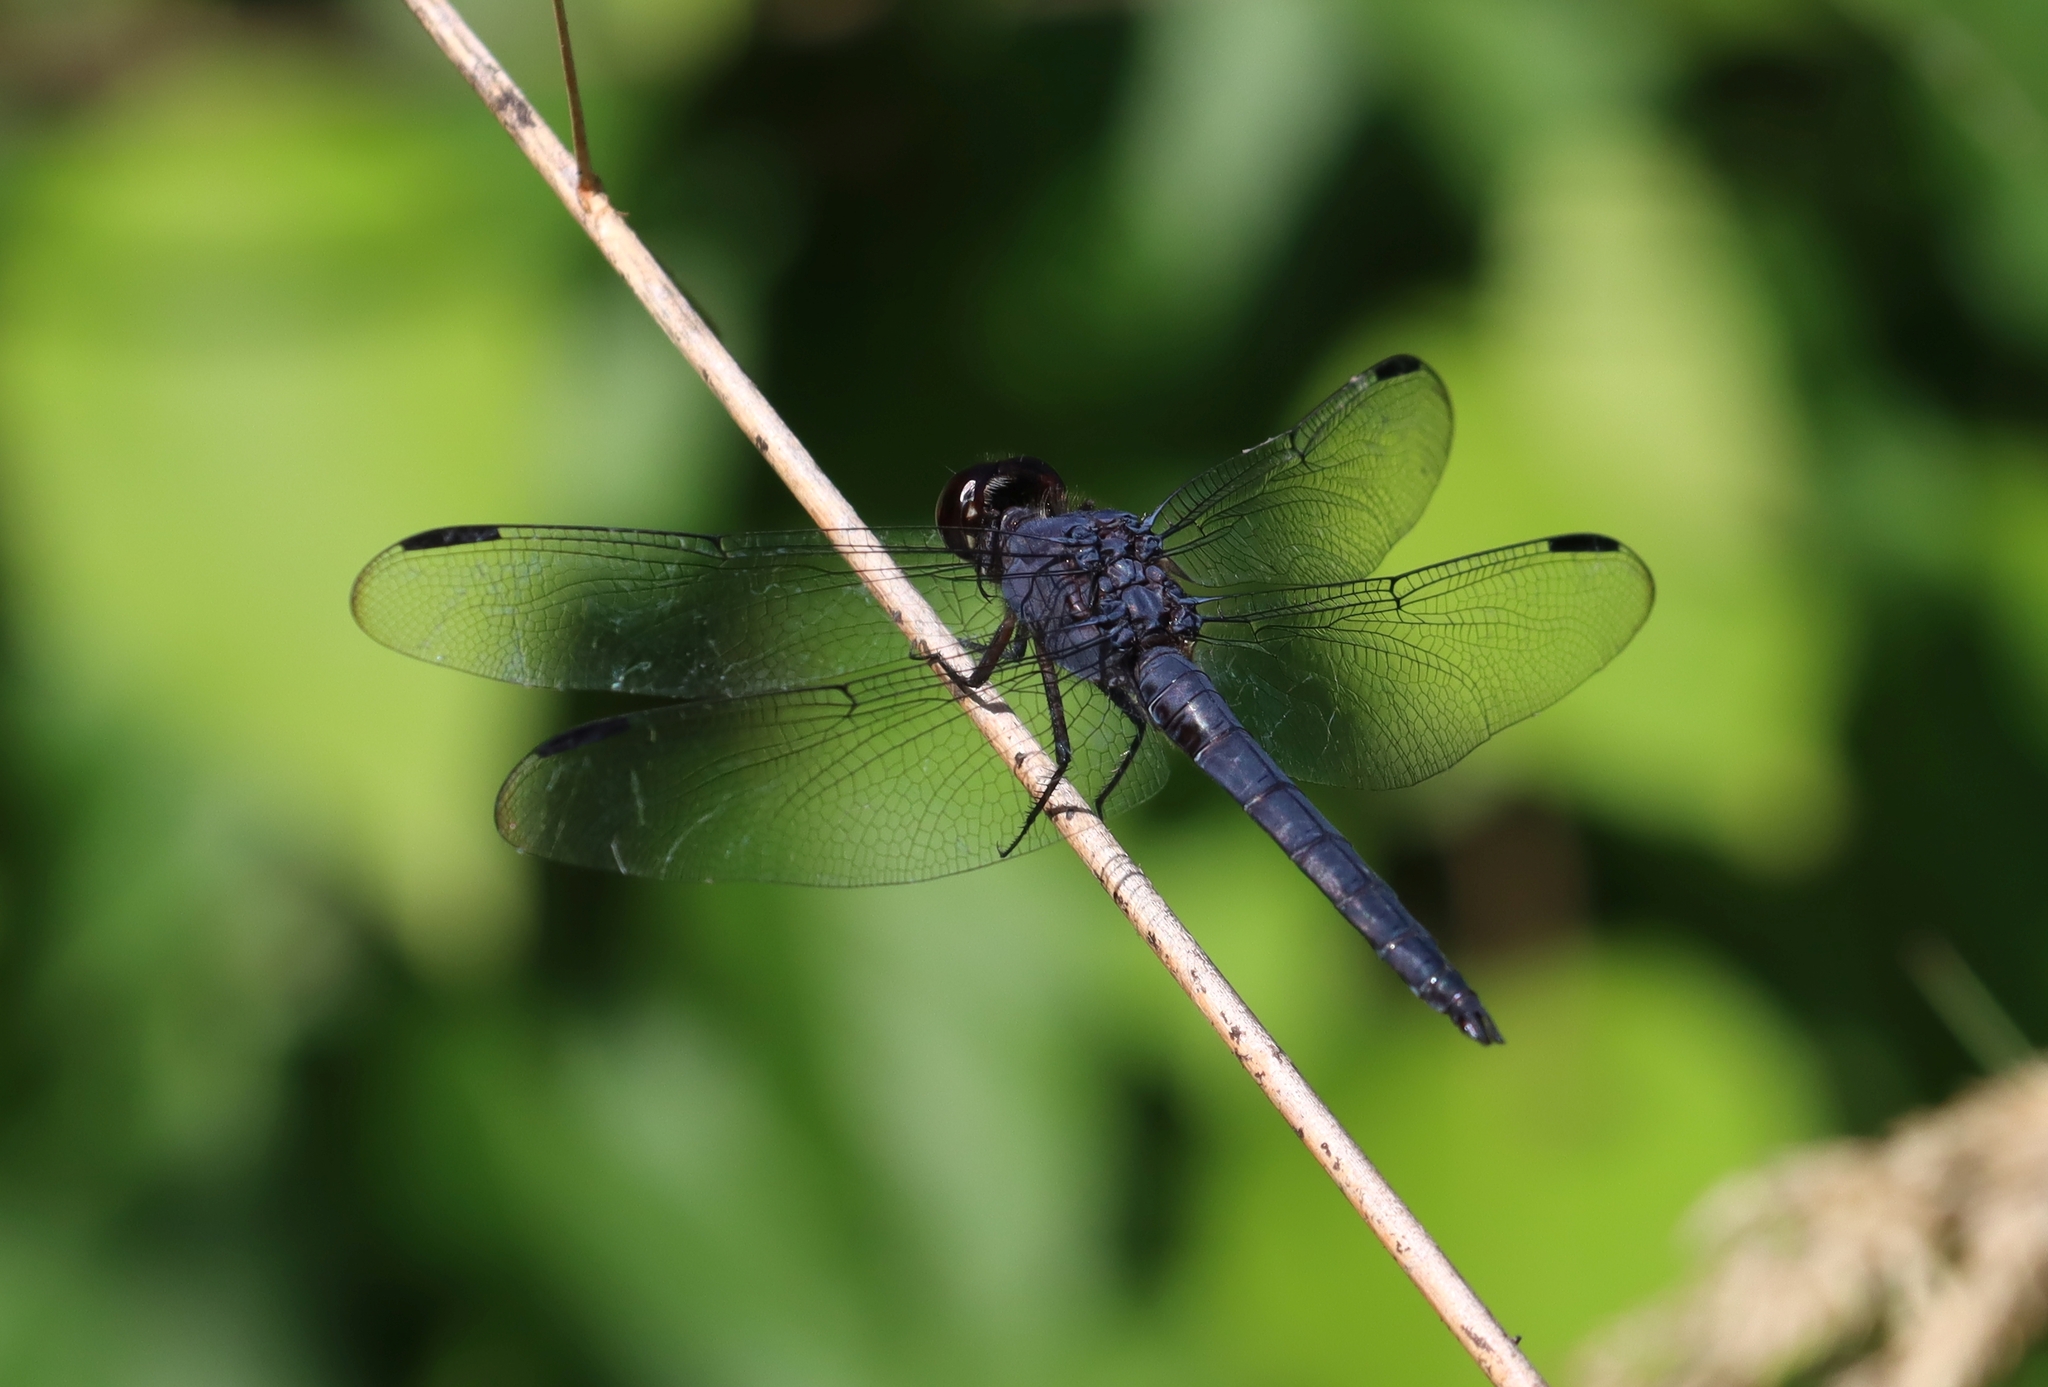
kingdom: Animalia
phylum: Arthropoda
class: Insecta
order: Odonata
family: Libellulidae
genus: Libellula
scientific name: Libellula incesta
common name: Slaty skimmer
